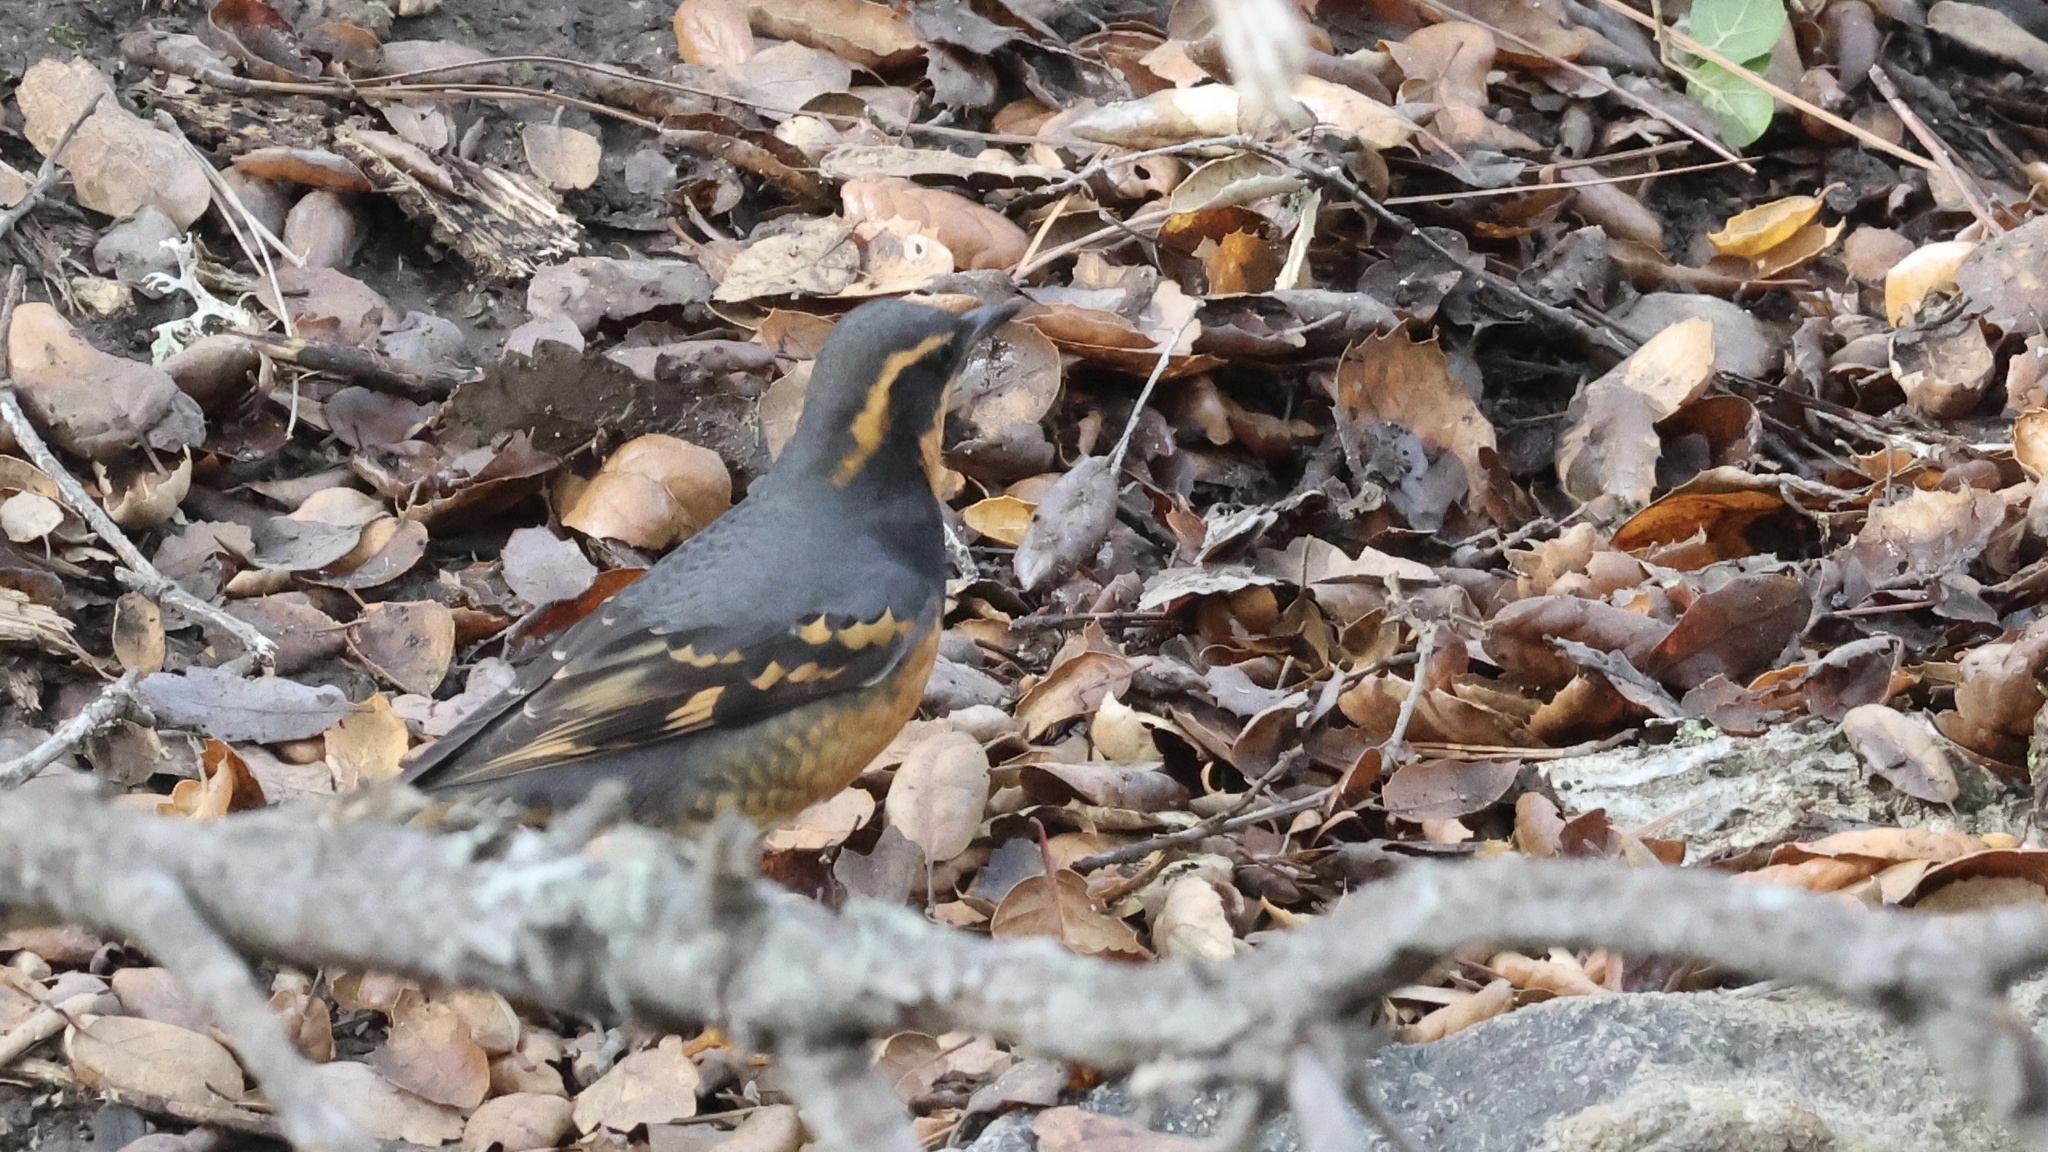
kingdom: Animalia
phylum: Chordata
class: Aves
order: Passeriformes
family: Turdidae
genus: Ixoreus
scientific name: Ixoreus naevius
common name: Varied thrush
